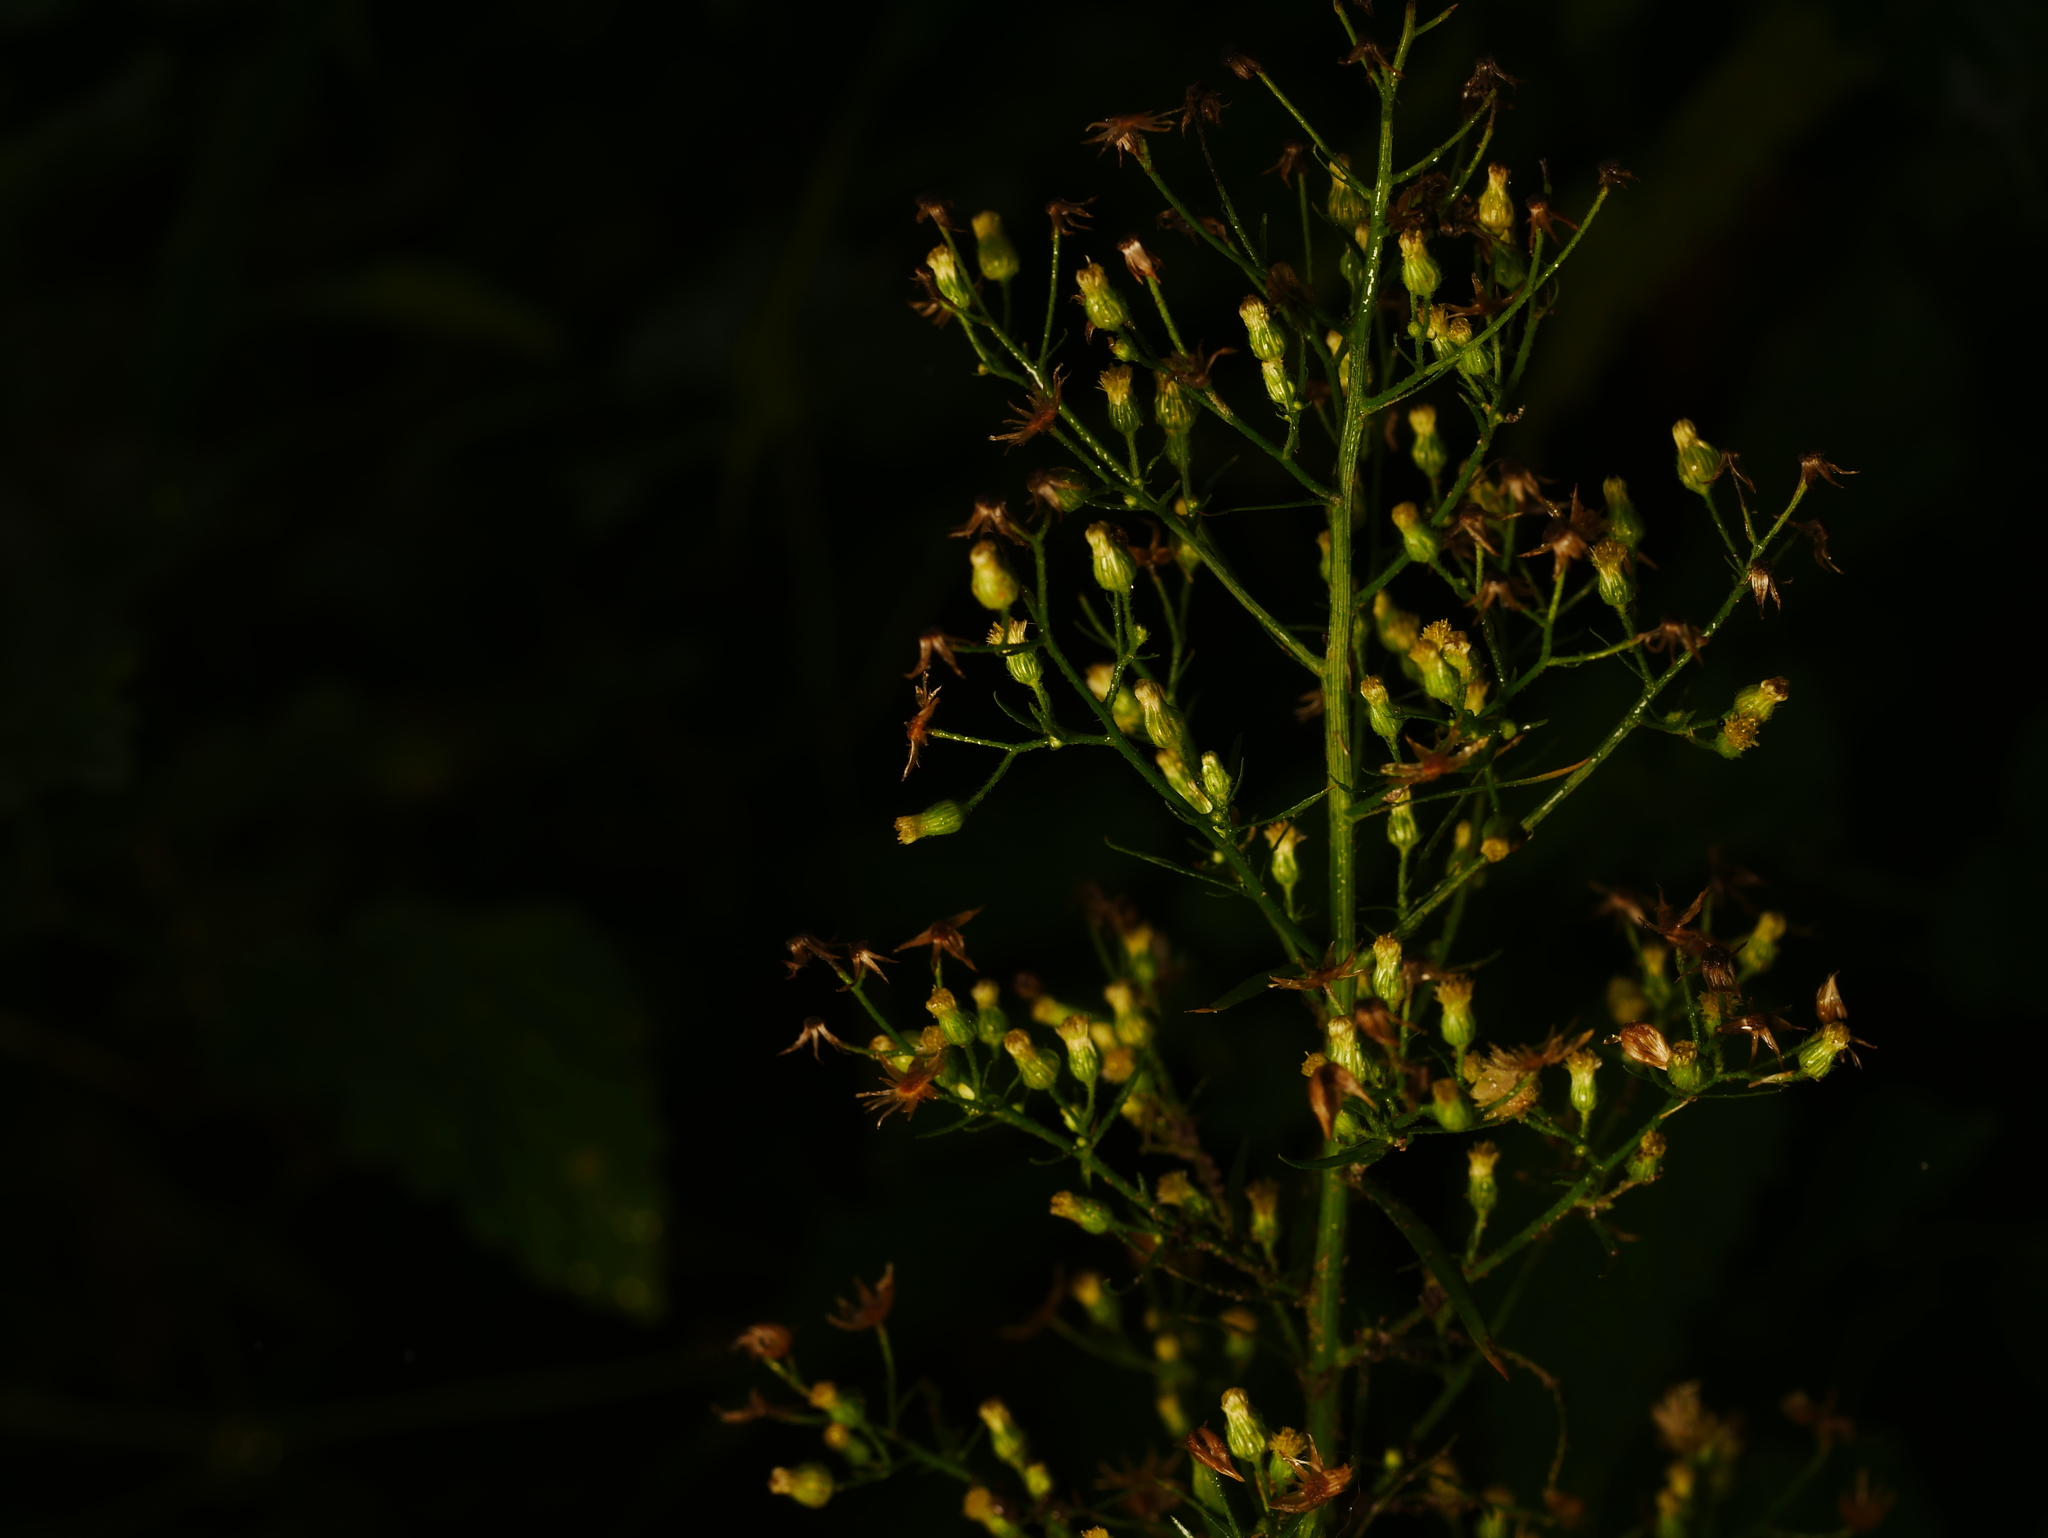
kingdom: Plantae
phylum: Tracheophyta
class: Magnoliopsida
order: Asterales
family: Asteraceae
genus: Erigeron
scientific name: Erigeron canadensis
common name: Canadian fleabane
